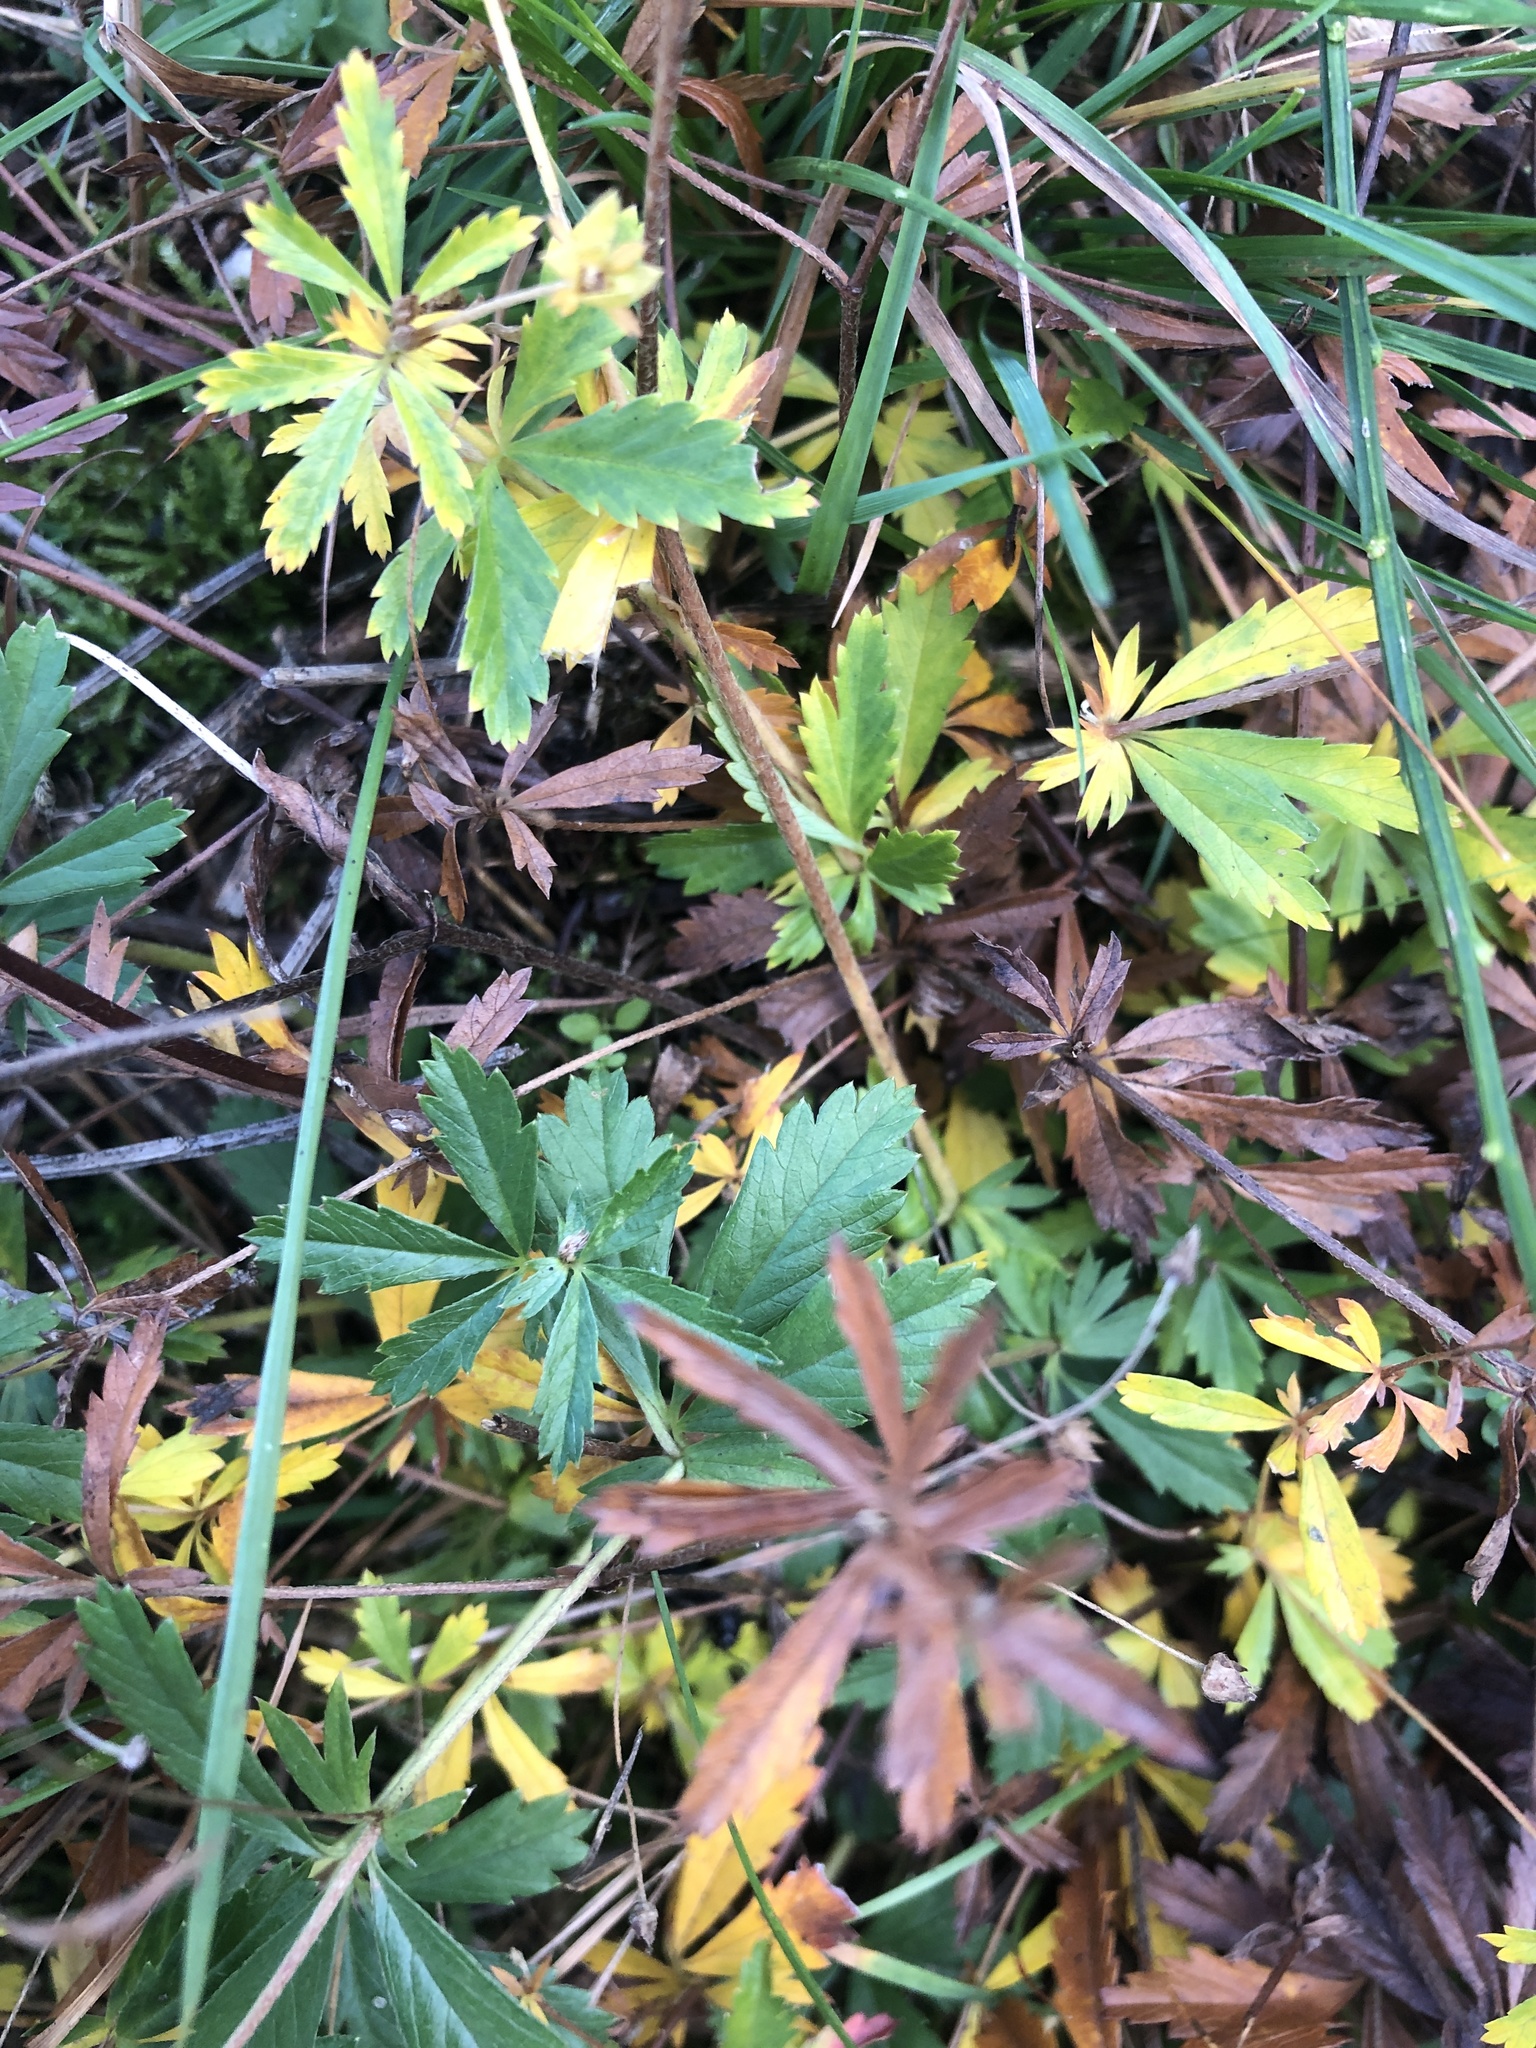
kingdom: Plantae
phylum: Tracheophyta
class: Magnoliopsida
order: Rosales
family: Rosaceae
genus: Potentilla
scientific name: Potentilla reptans
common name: Creeping cinquefoil
